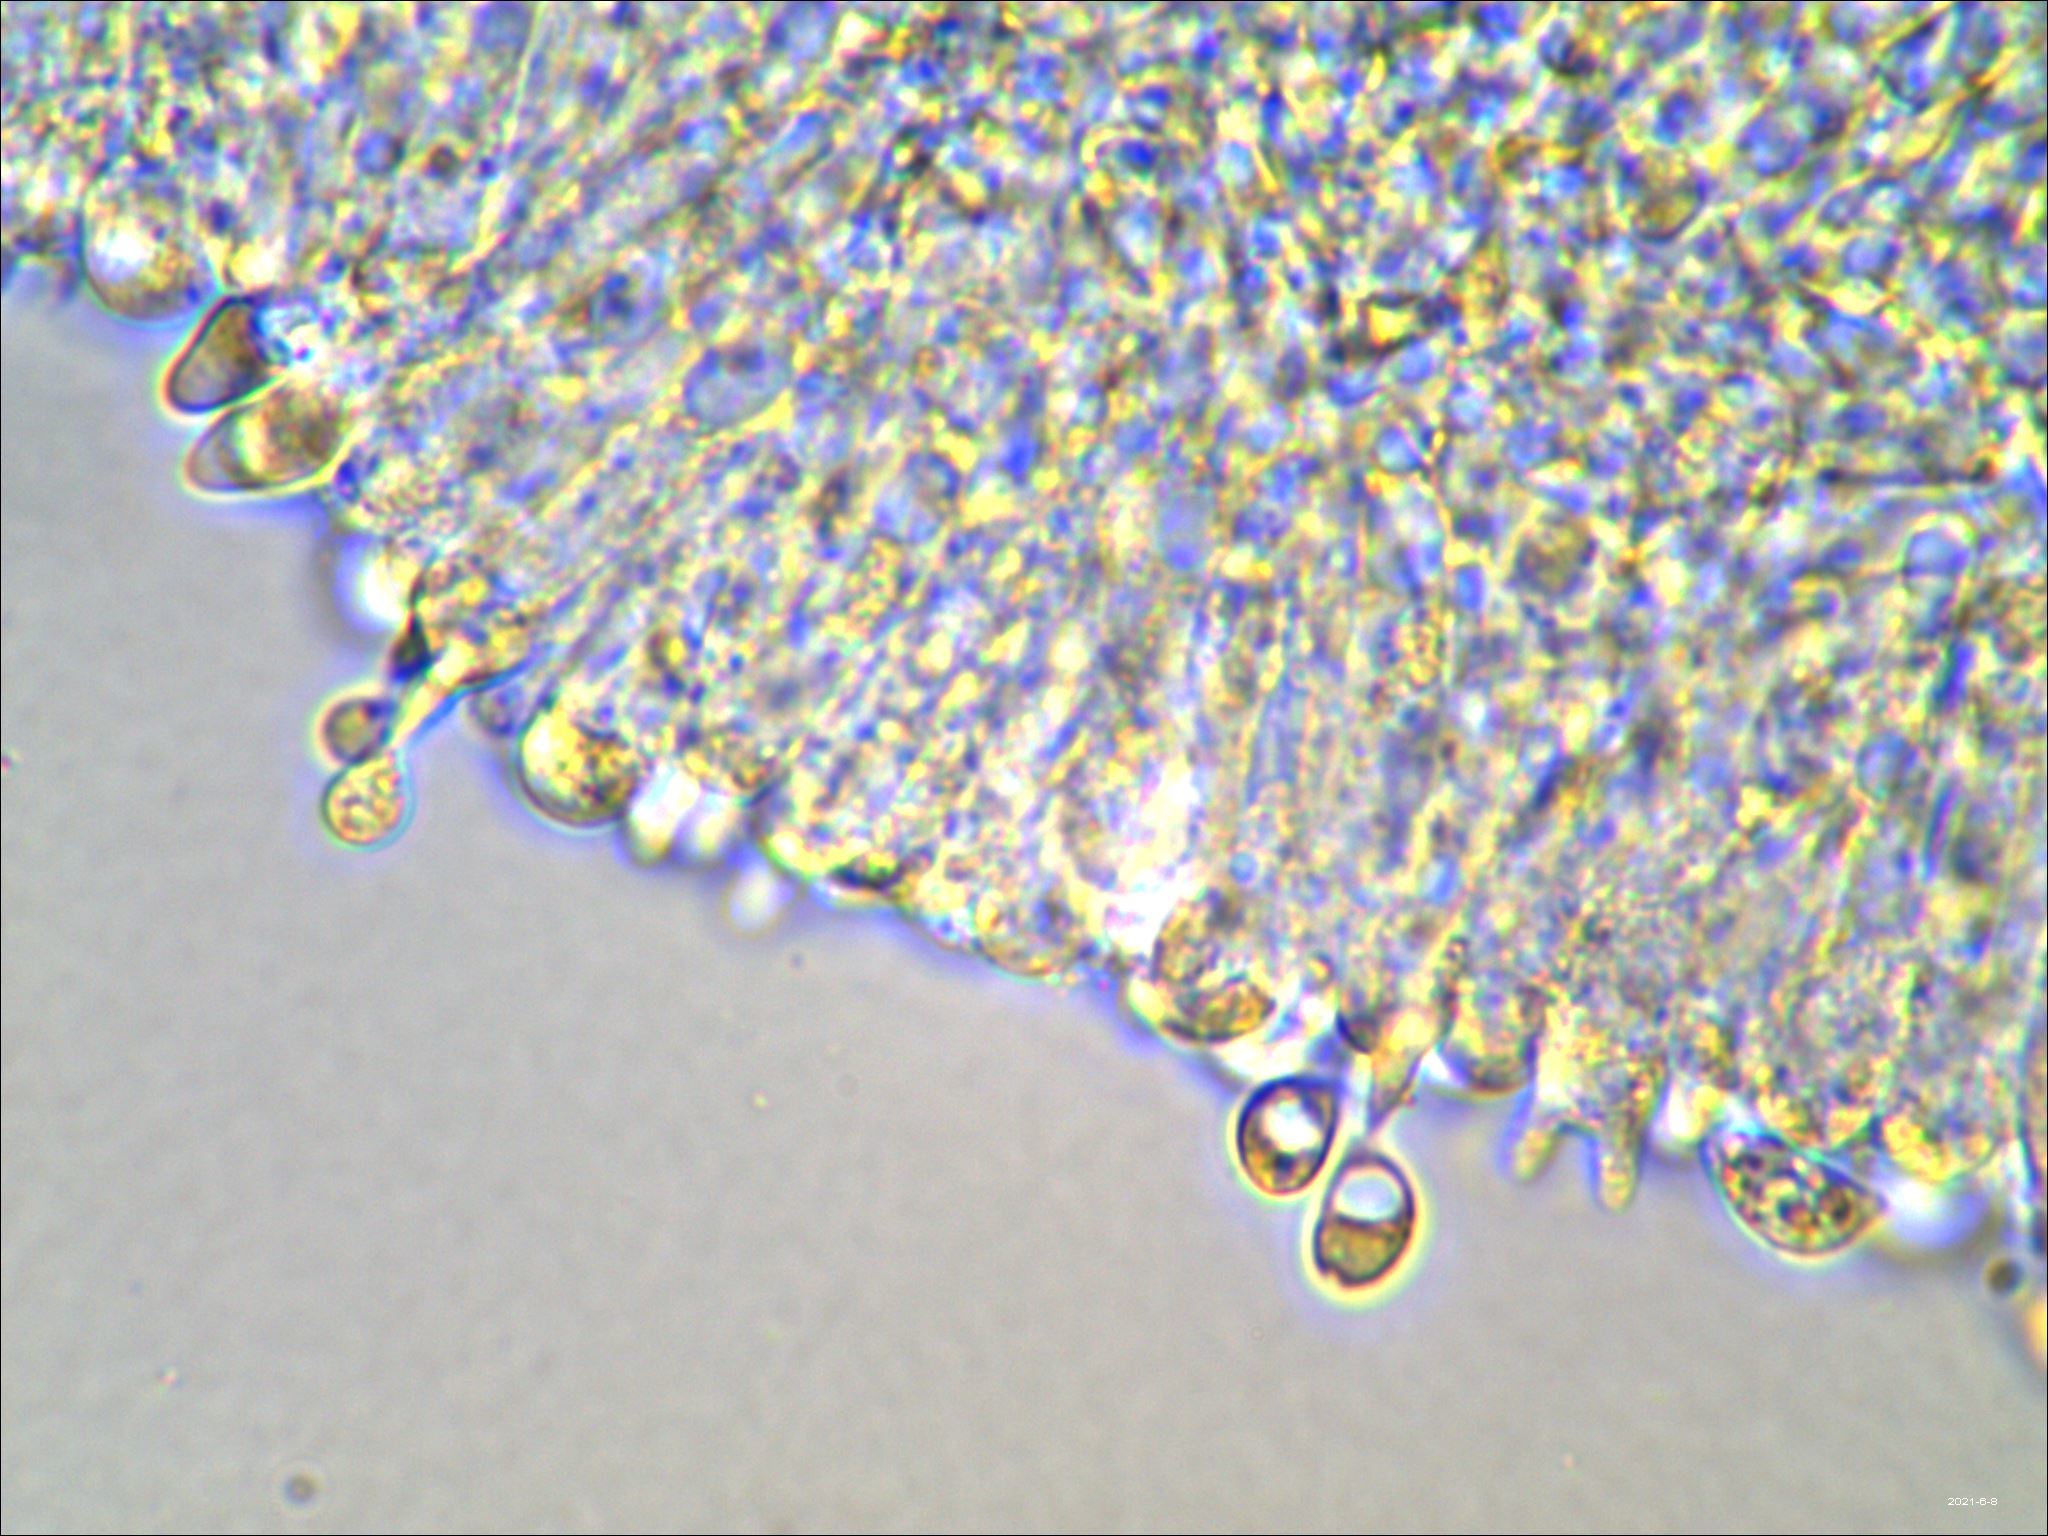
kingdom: Fungi
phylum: Basidiomycota
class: Agaricomycetes
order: Agaricales
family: Tricholomataceae
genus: Delicatula
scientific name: Delicatula integrella
